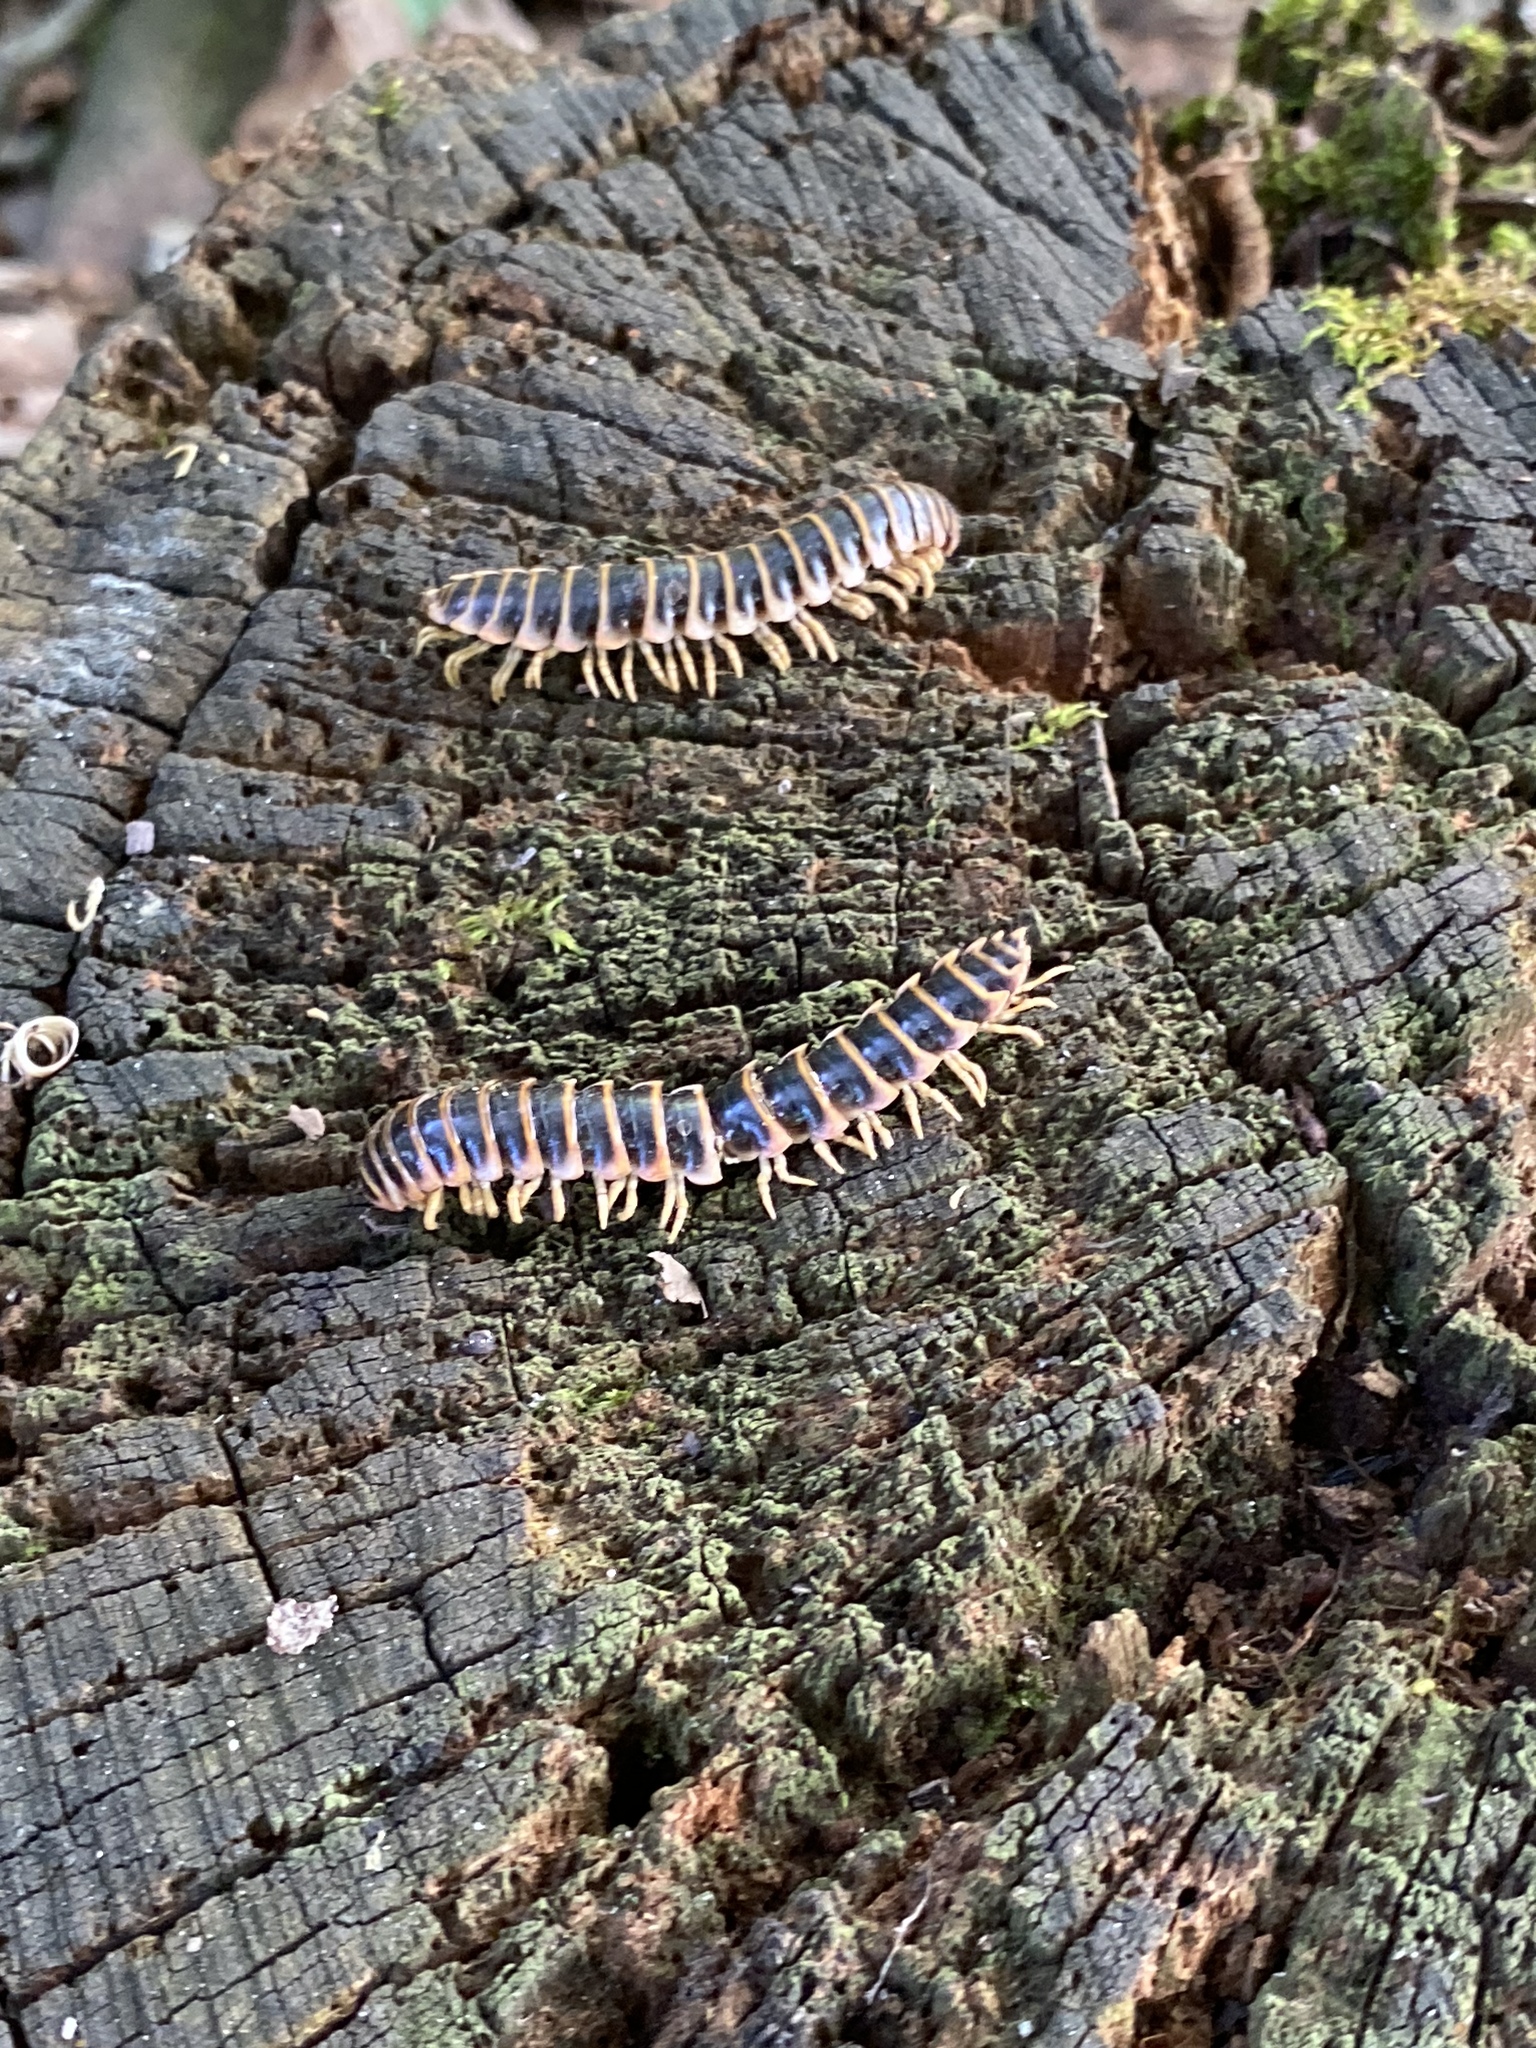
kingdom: Animalia
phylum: Arthropoda
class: Diplopoda
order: Polydesmida
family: Xystodesmidae
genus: Apheloria
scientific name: Apheloria virginiensis
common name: Black-and-gold flat millipede
